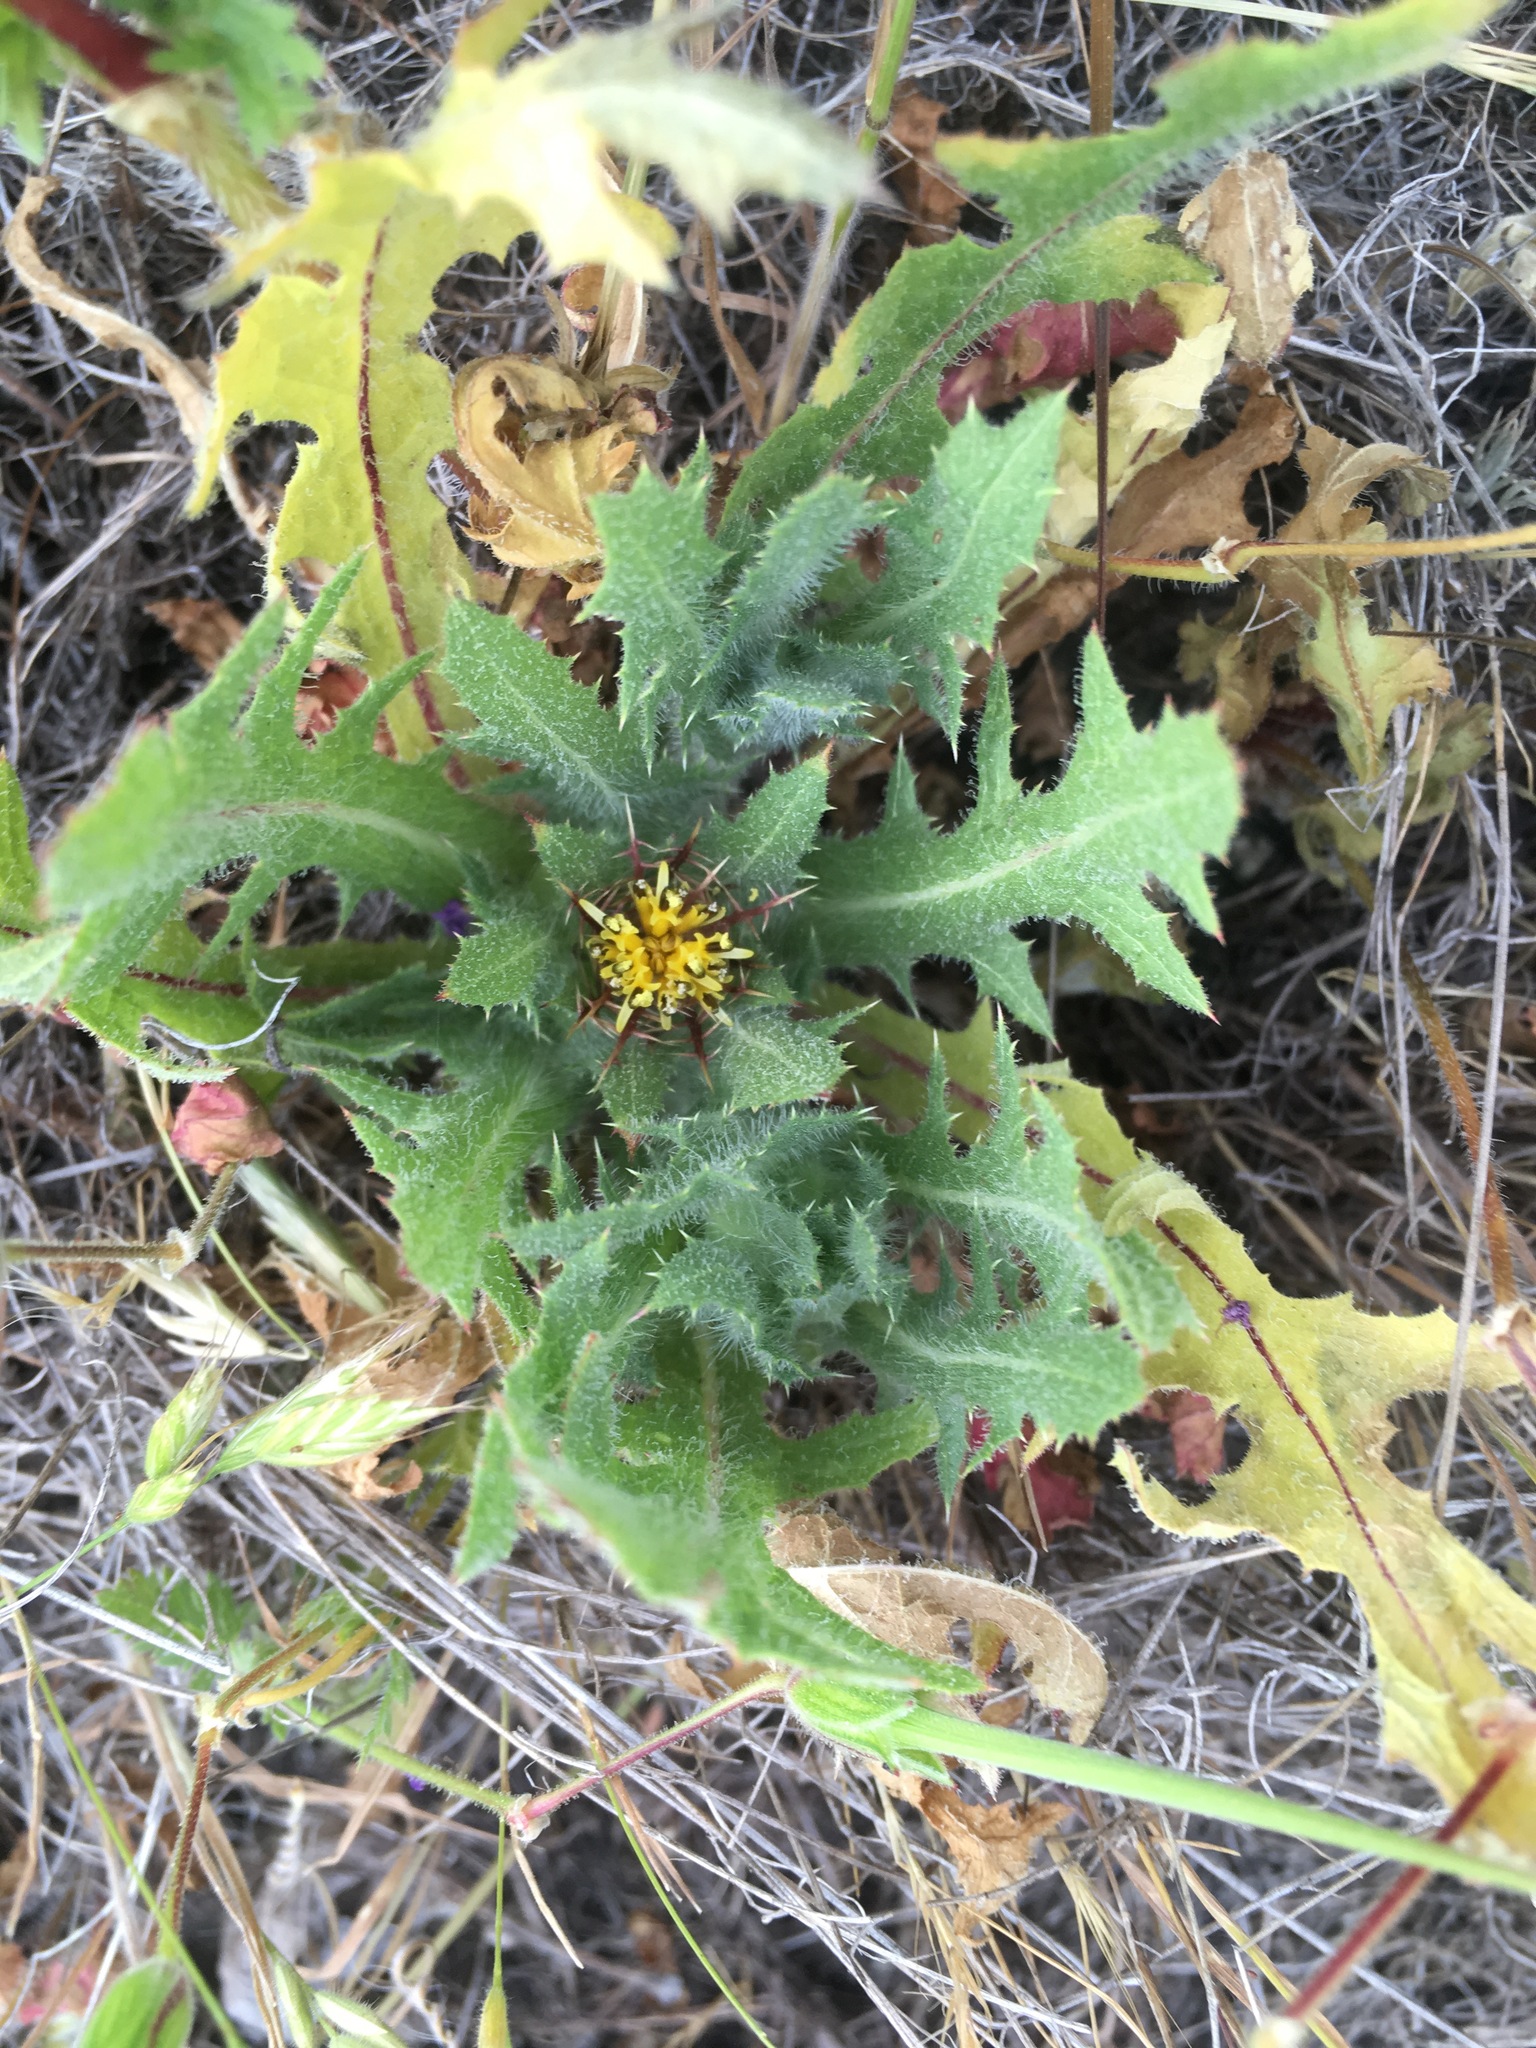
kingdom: Plantae
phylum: Tracheophyta
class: Magnoliopsida
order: Asterales
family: Asteraceae
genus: Centaurea
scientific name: Centaurea benedicta
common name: Blessed thistle
